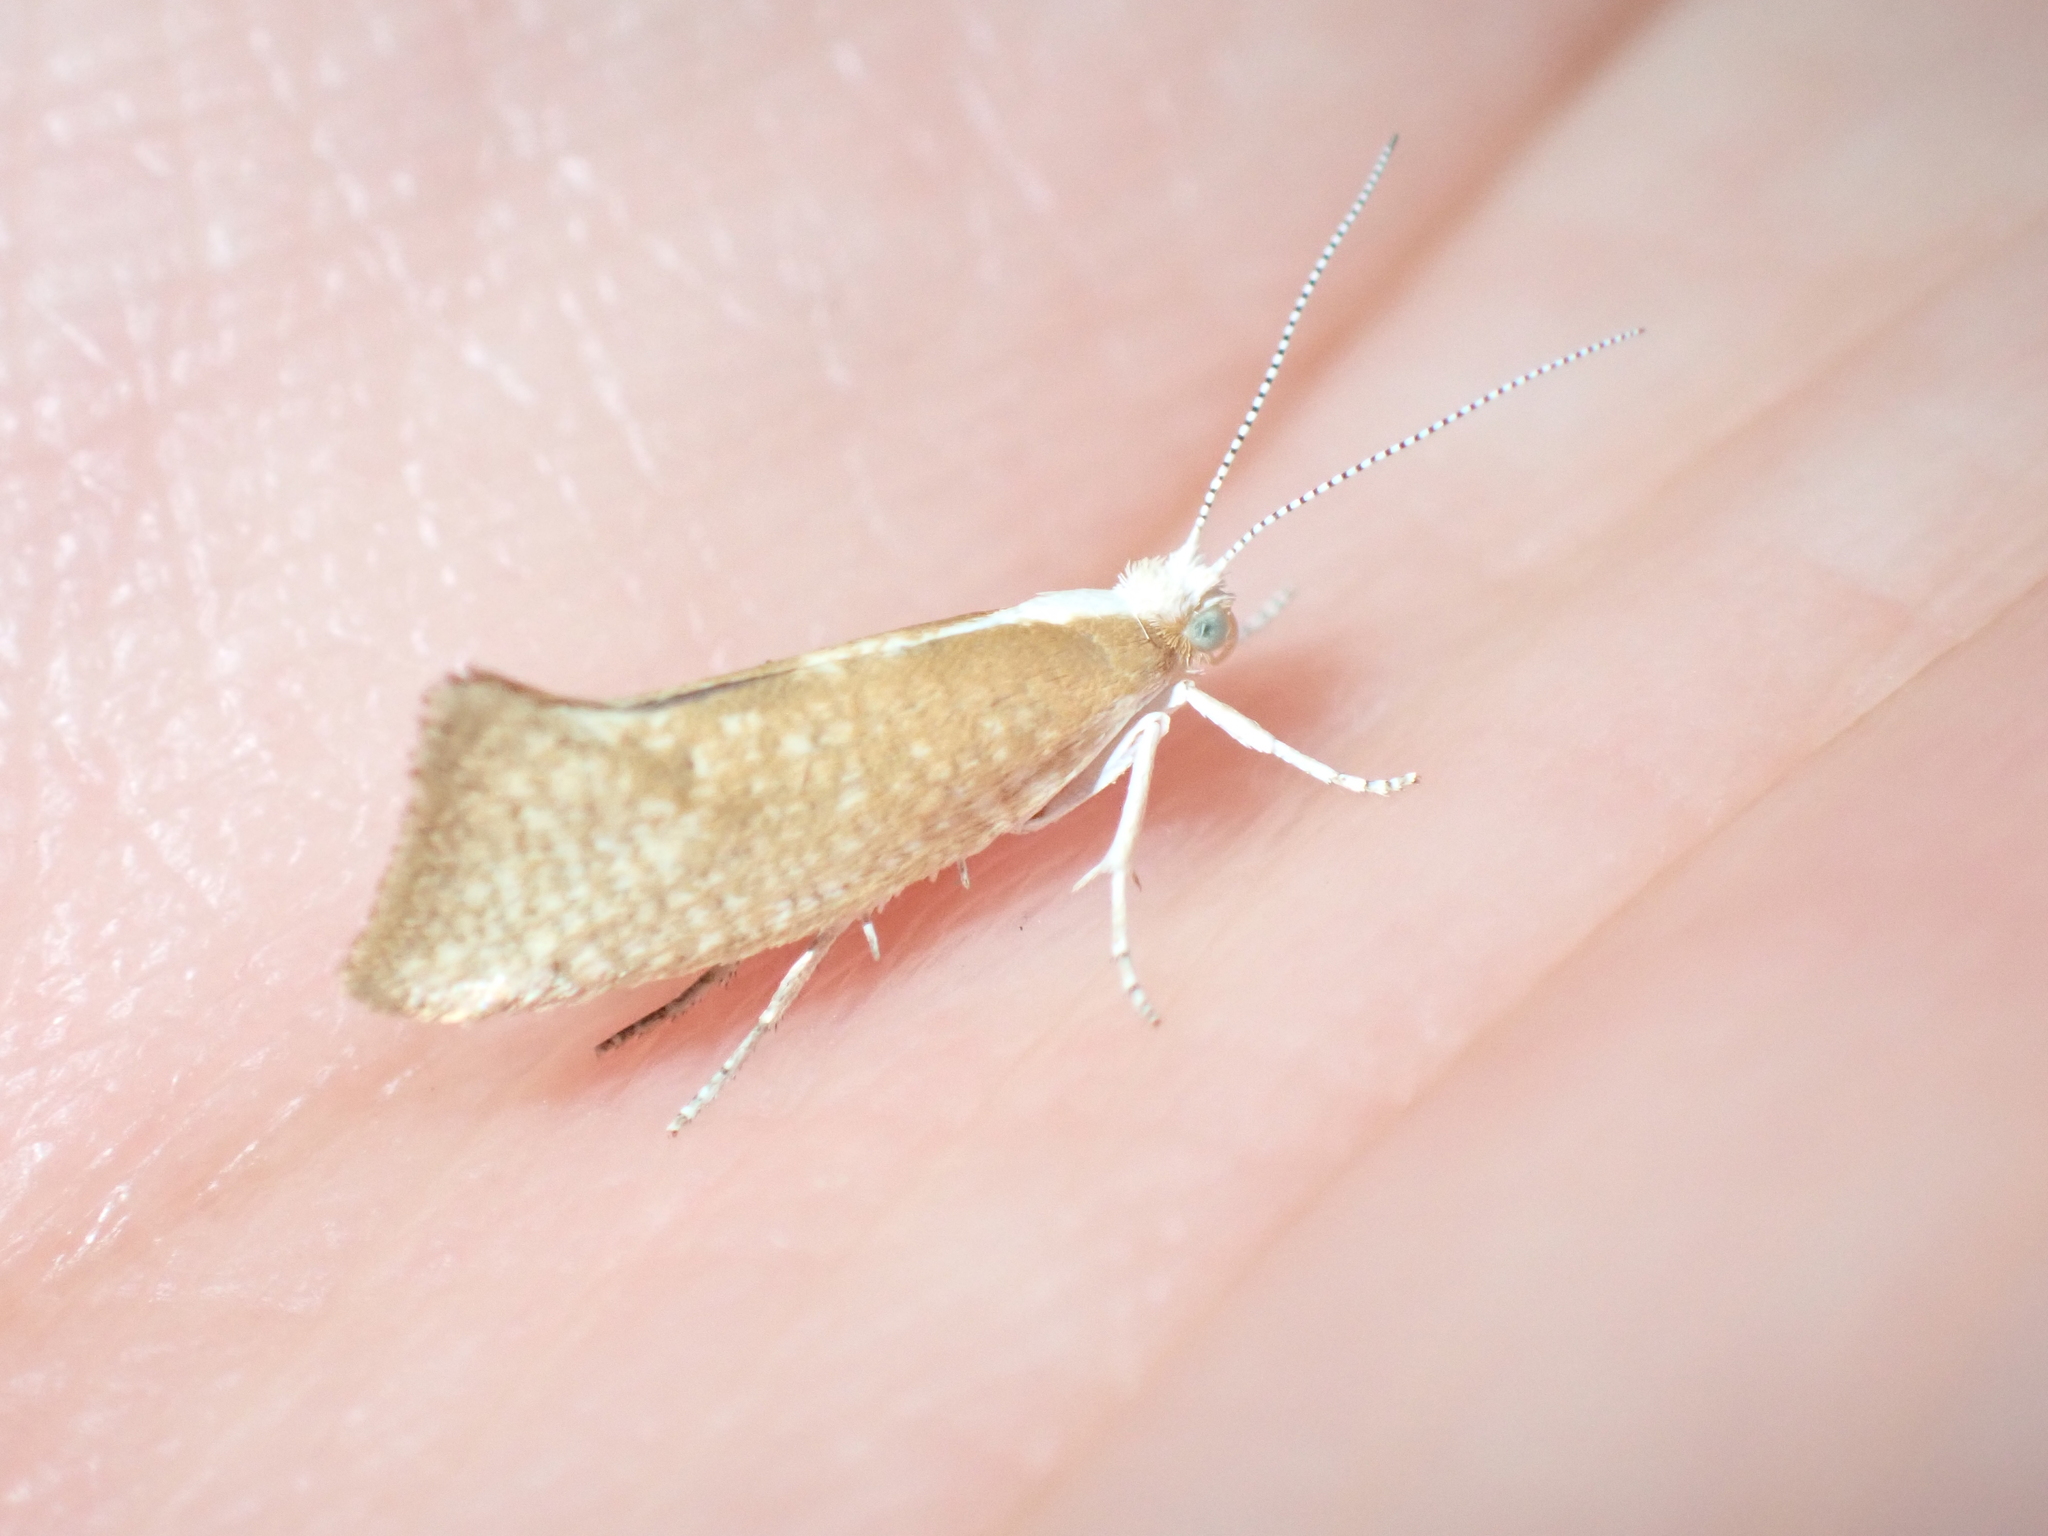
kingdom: Animalia
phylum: Arthropoda
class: Insecta
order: Lepidoptera
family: Ypsolophidae
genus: Ypsolopha
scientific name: Ypsolopha lucella
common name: Plain smudge
